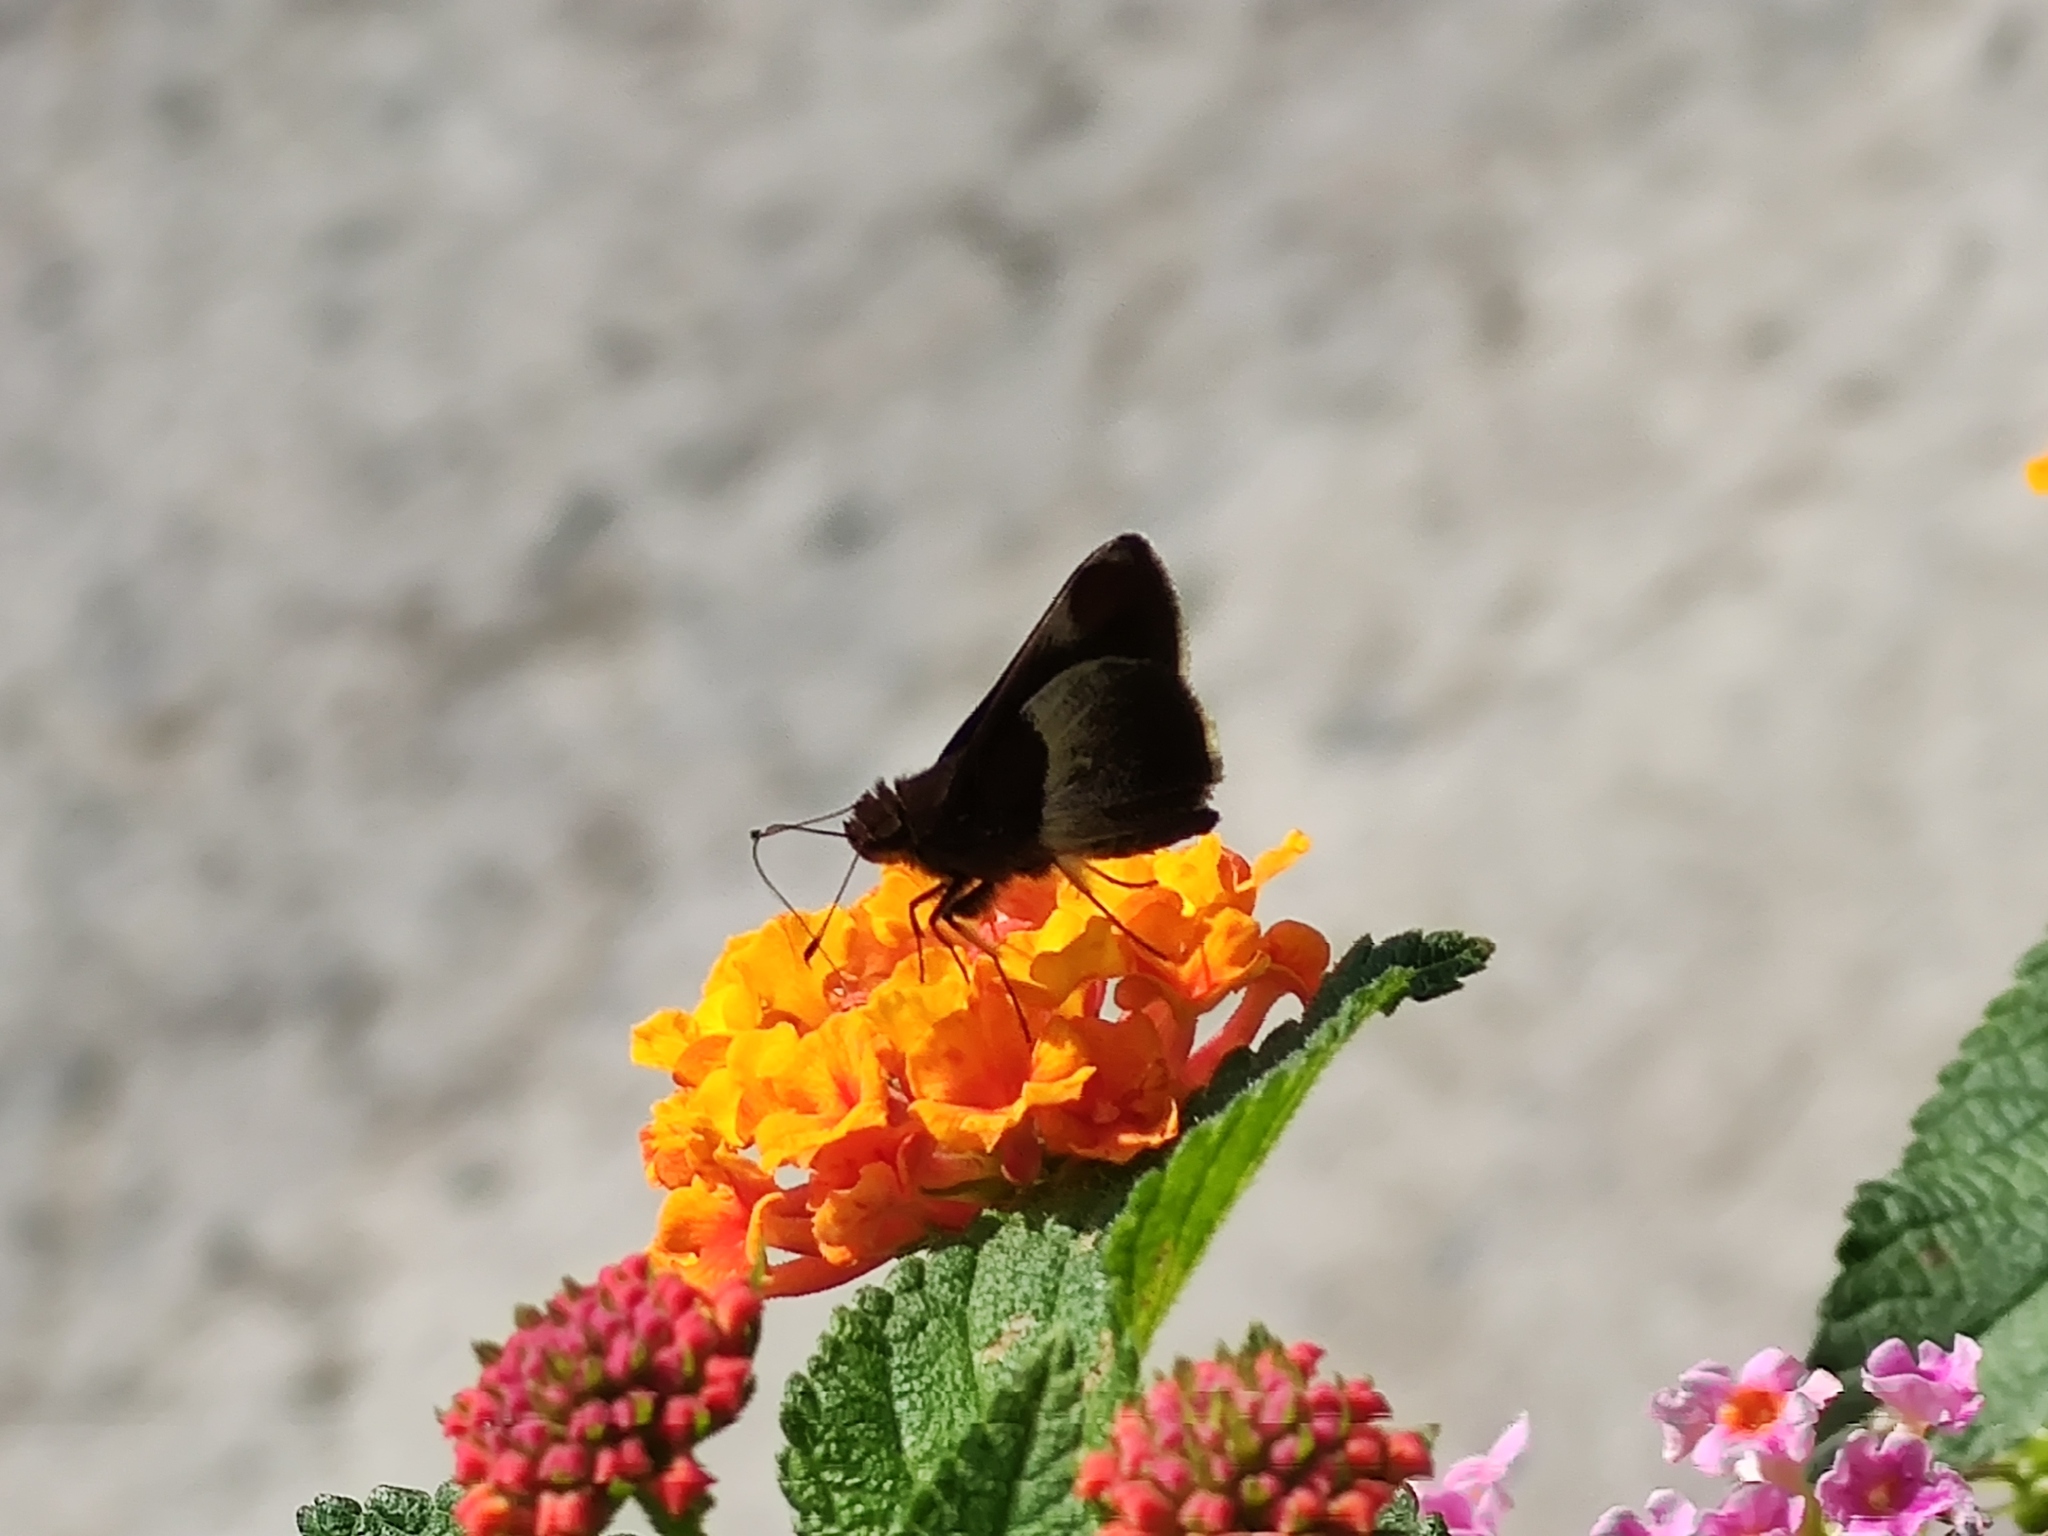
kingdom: Animalia
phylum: Arthropoda
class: Insecta
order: Lepidoptera
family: Hesperiidae
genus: Moeris
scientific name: Moeris remus
